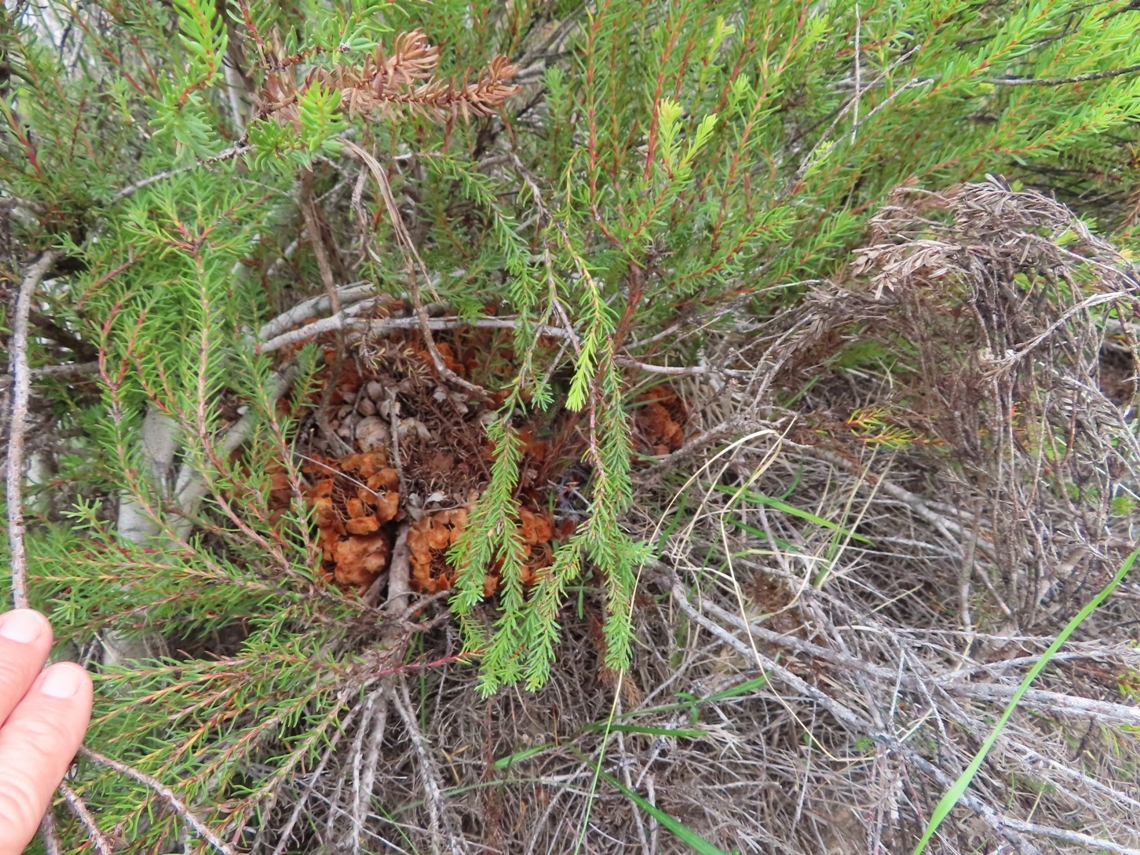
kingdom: Plantae
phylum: Tracheophyta
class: Magnoliopsida
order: Proteales
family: Proteaceae
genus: Protea
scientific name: Protea subulifolia
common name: Awl-leaf sugarbush
